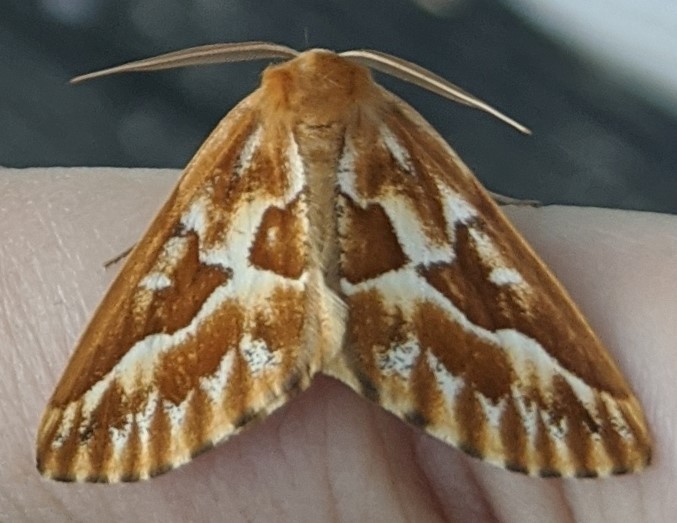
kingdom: Animalia
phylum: Arthropoda
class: Insecta
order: Lepidoptera
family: Geometridae
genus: Caripeta
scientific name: Caripeta piniata
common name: Northern pine looper moth
